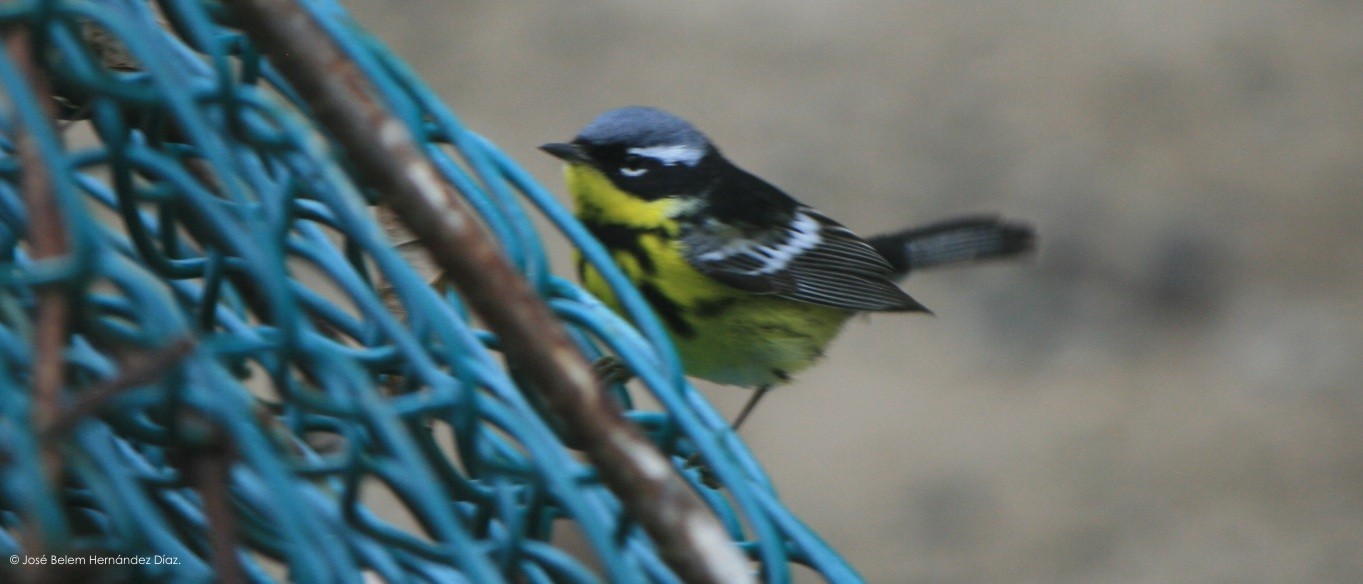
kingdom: Animalia
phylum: Chordata
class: Aves
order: Passeriformes
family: Parulidae
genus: Setophaga
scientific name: Setophaga magnolia
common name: Magnolia warbler
